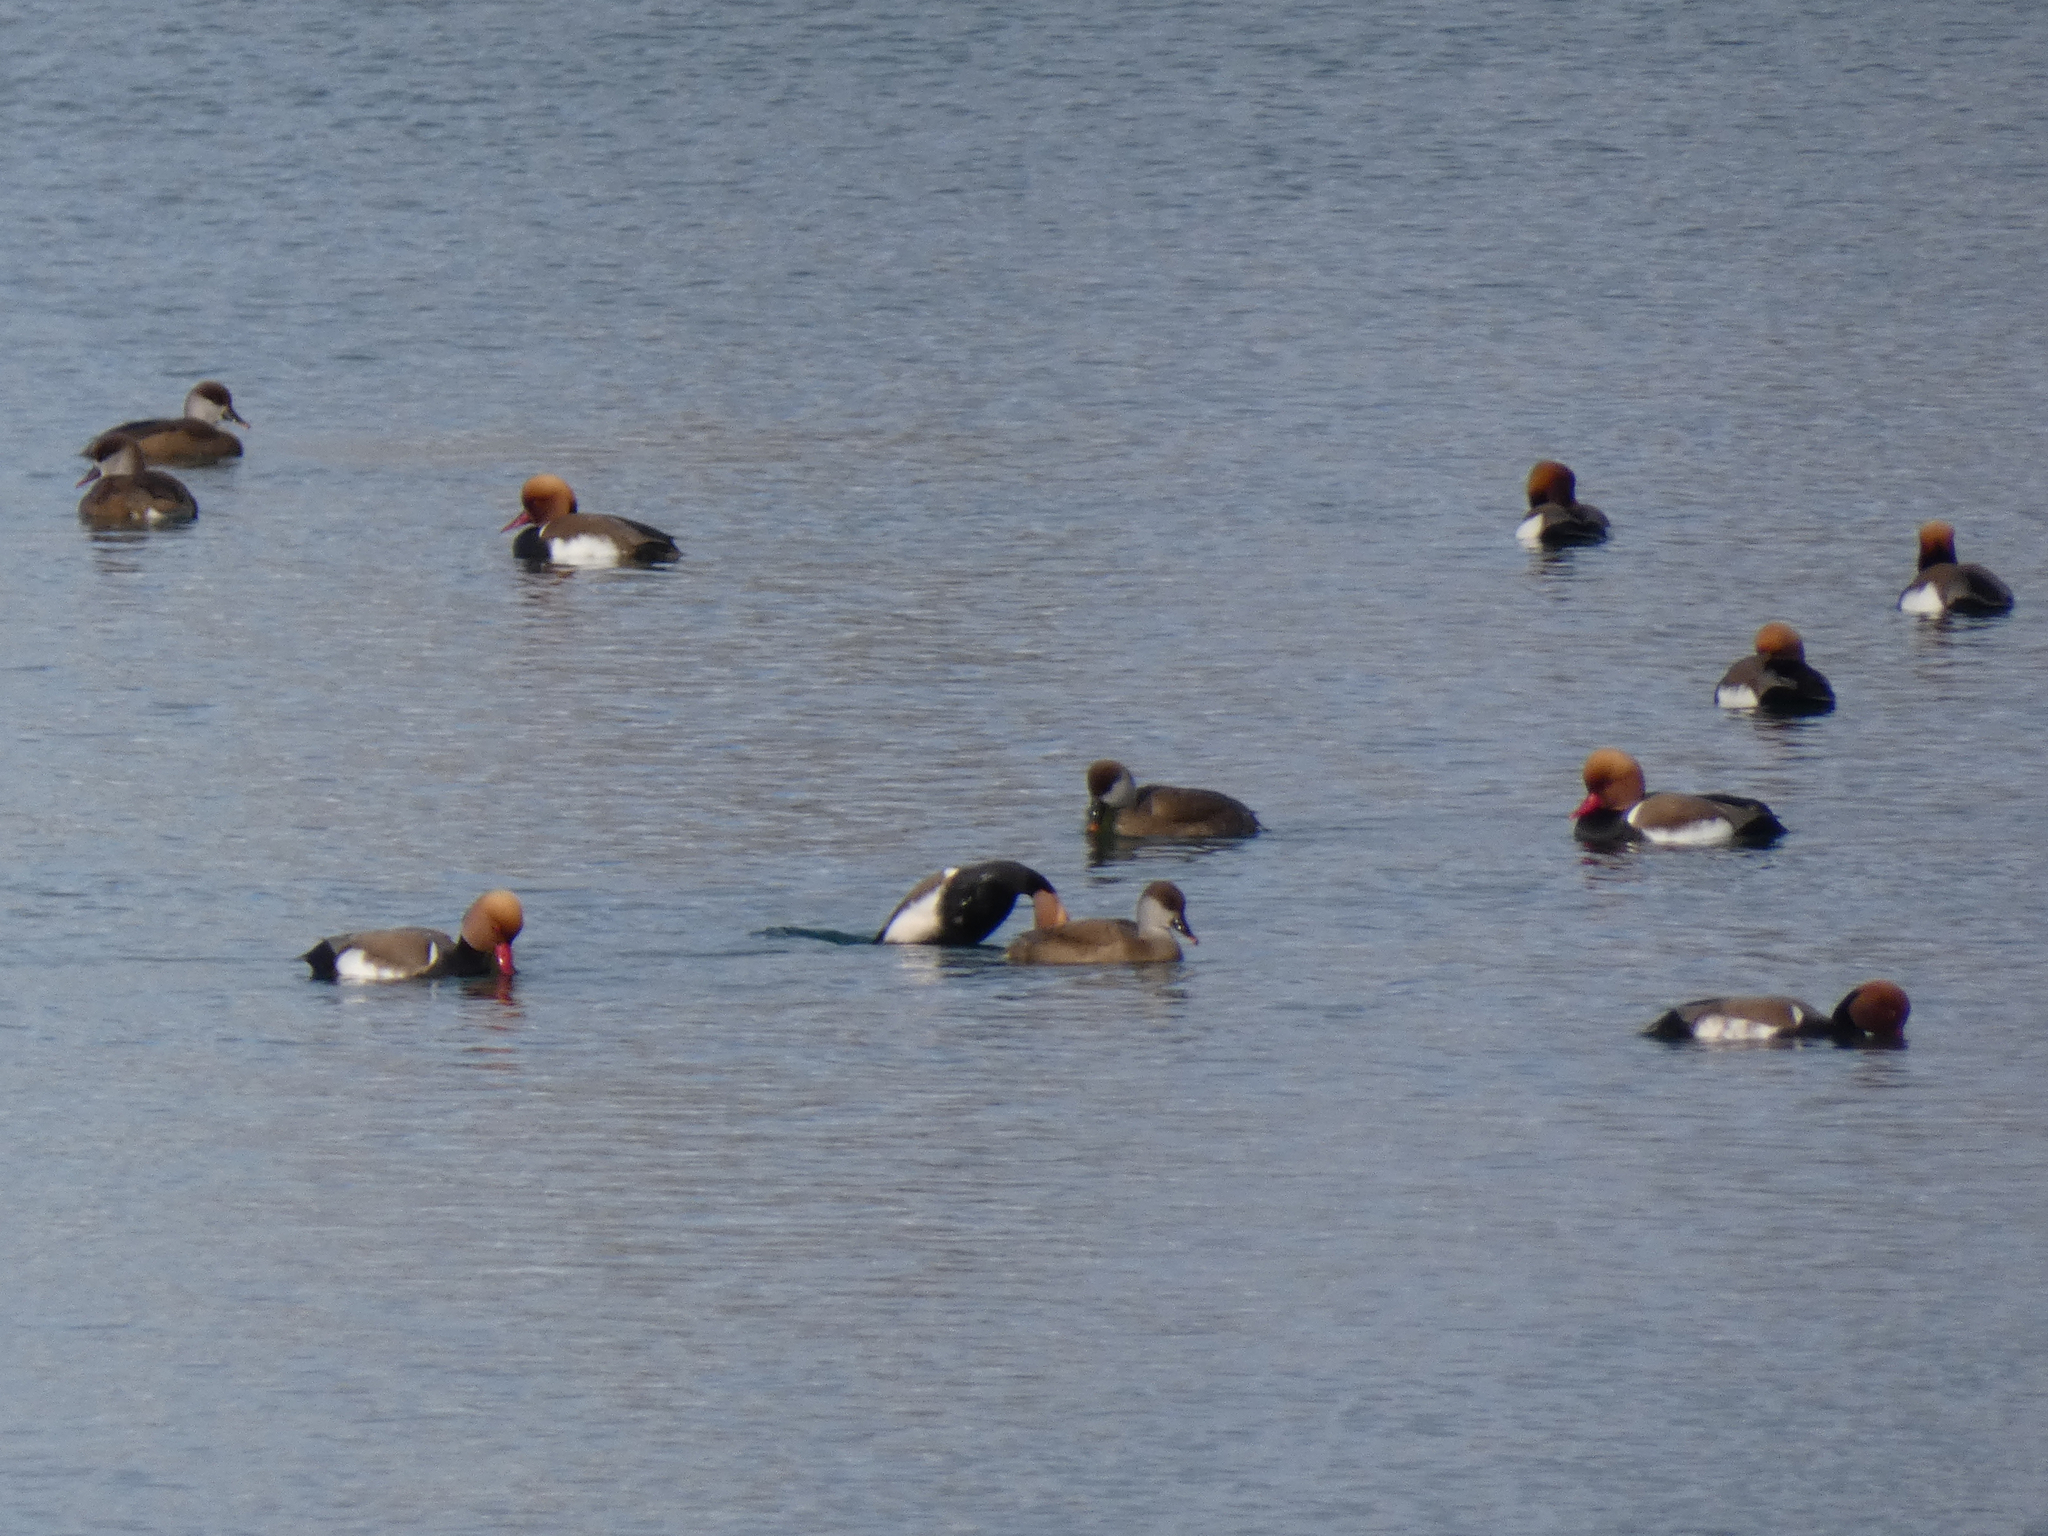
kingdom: Animalia
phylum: Chordata
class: Aves
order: Anseriformes
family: Anatidae
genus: Netta
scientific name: Netta rufina
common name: Red-crested pochard
